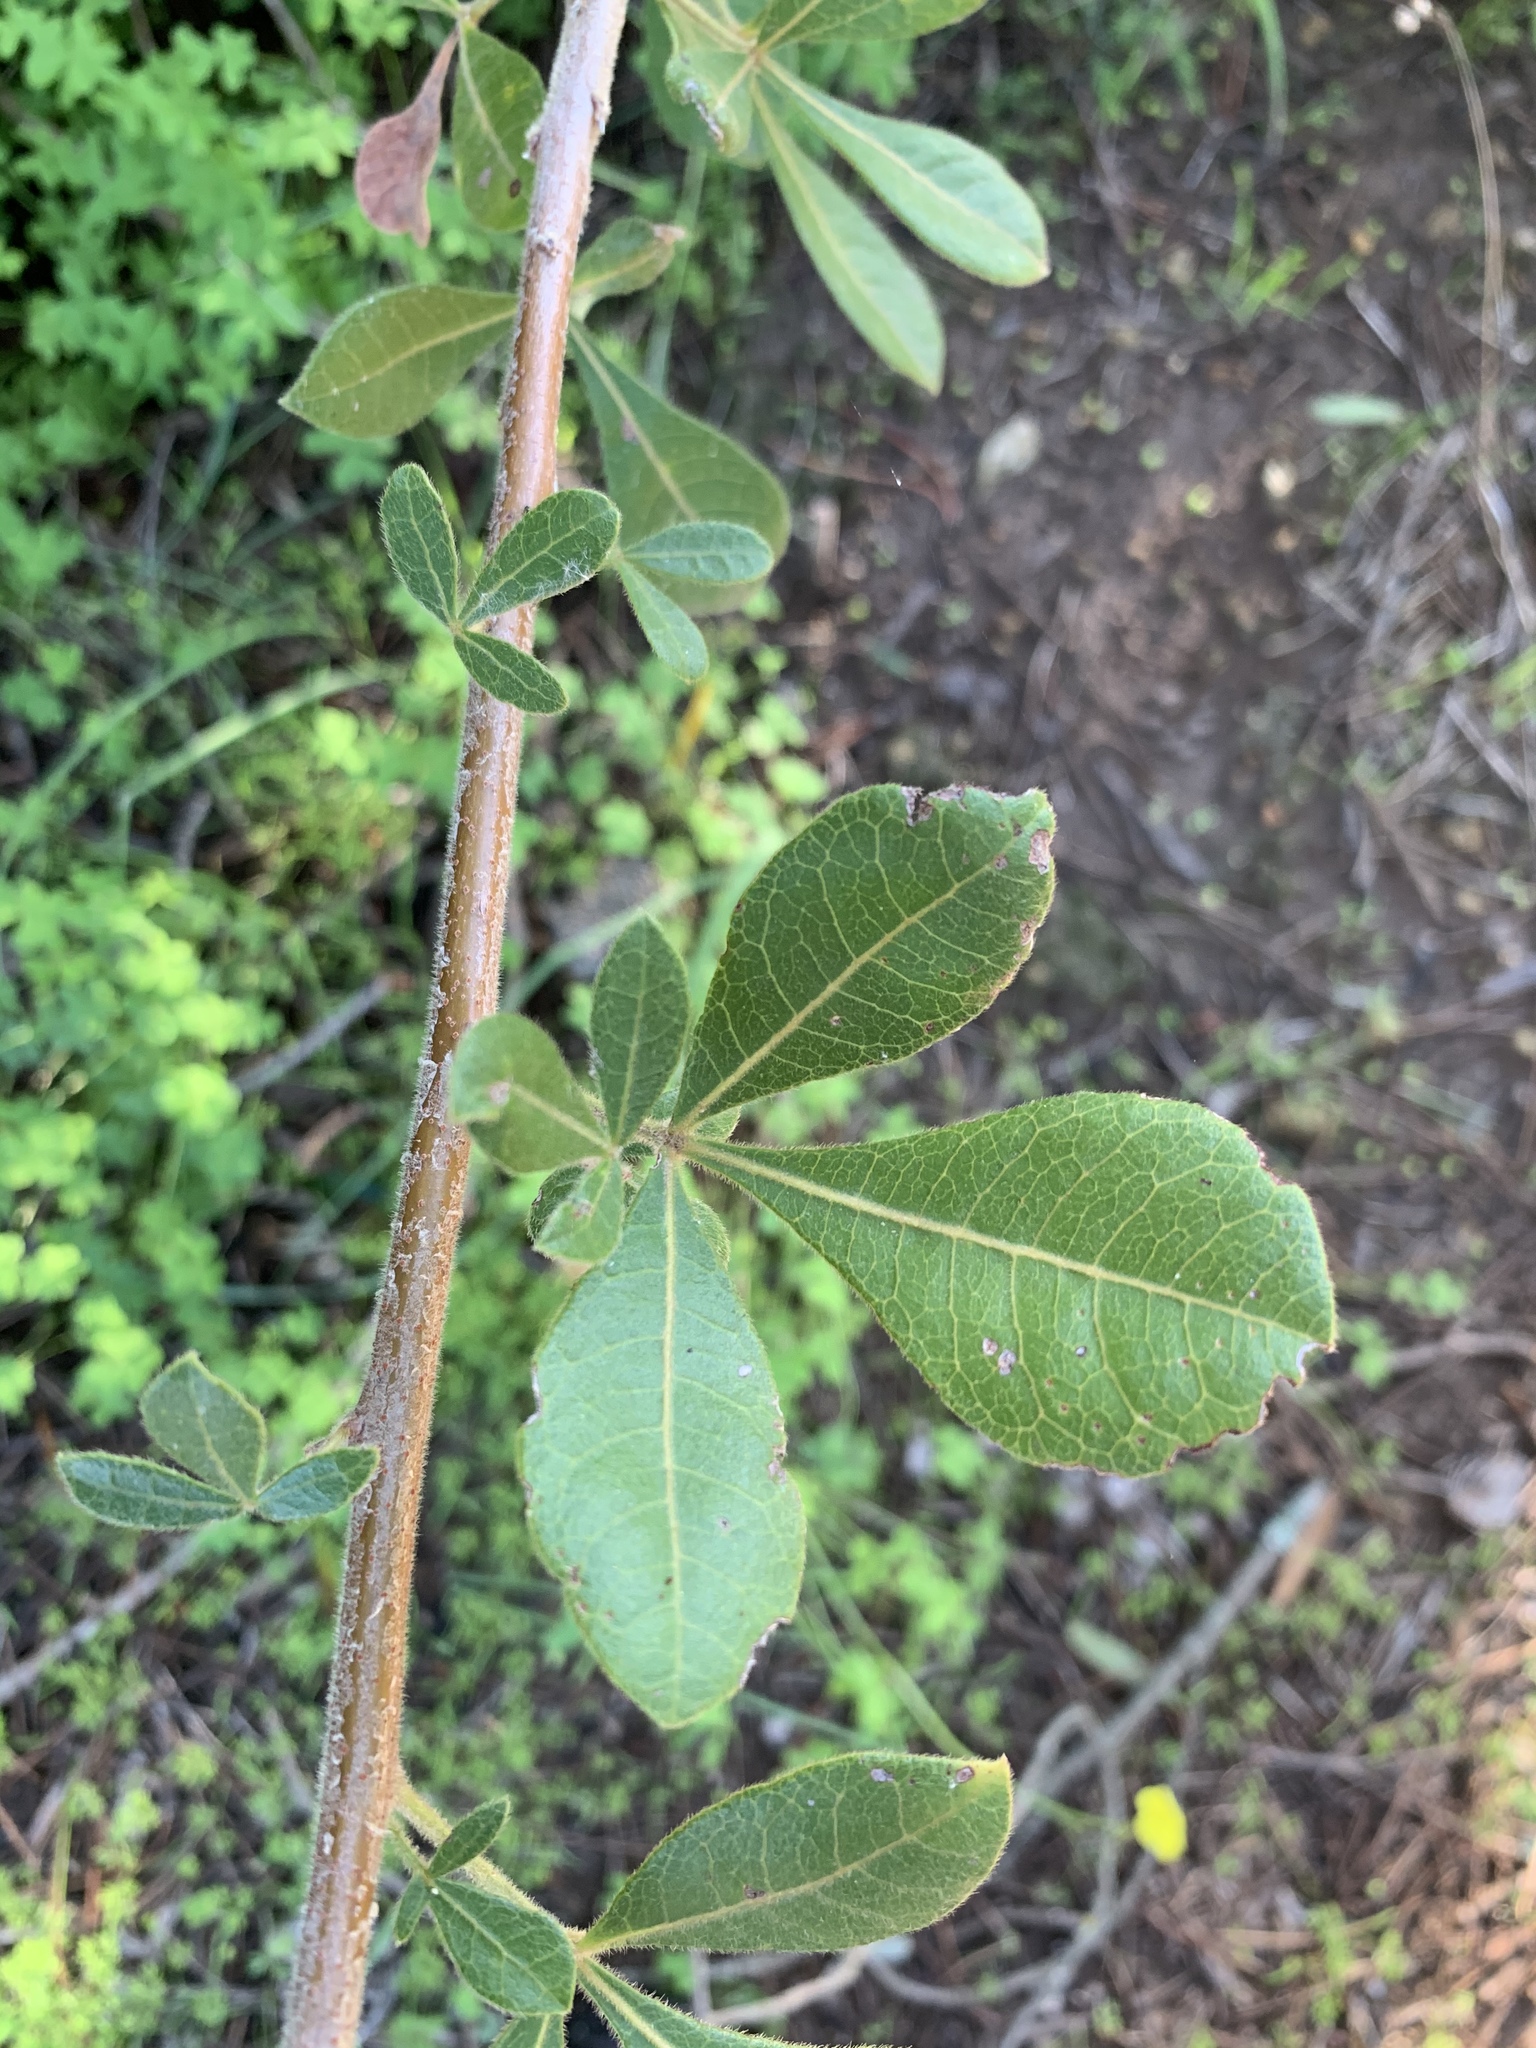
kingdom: Plantae
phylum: Tracheophyta
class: Magnoliopsida
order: Sapindales
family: Anacardiaceae
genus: Searsia
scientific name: Searsia laevigata
